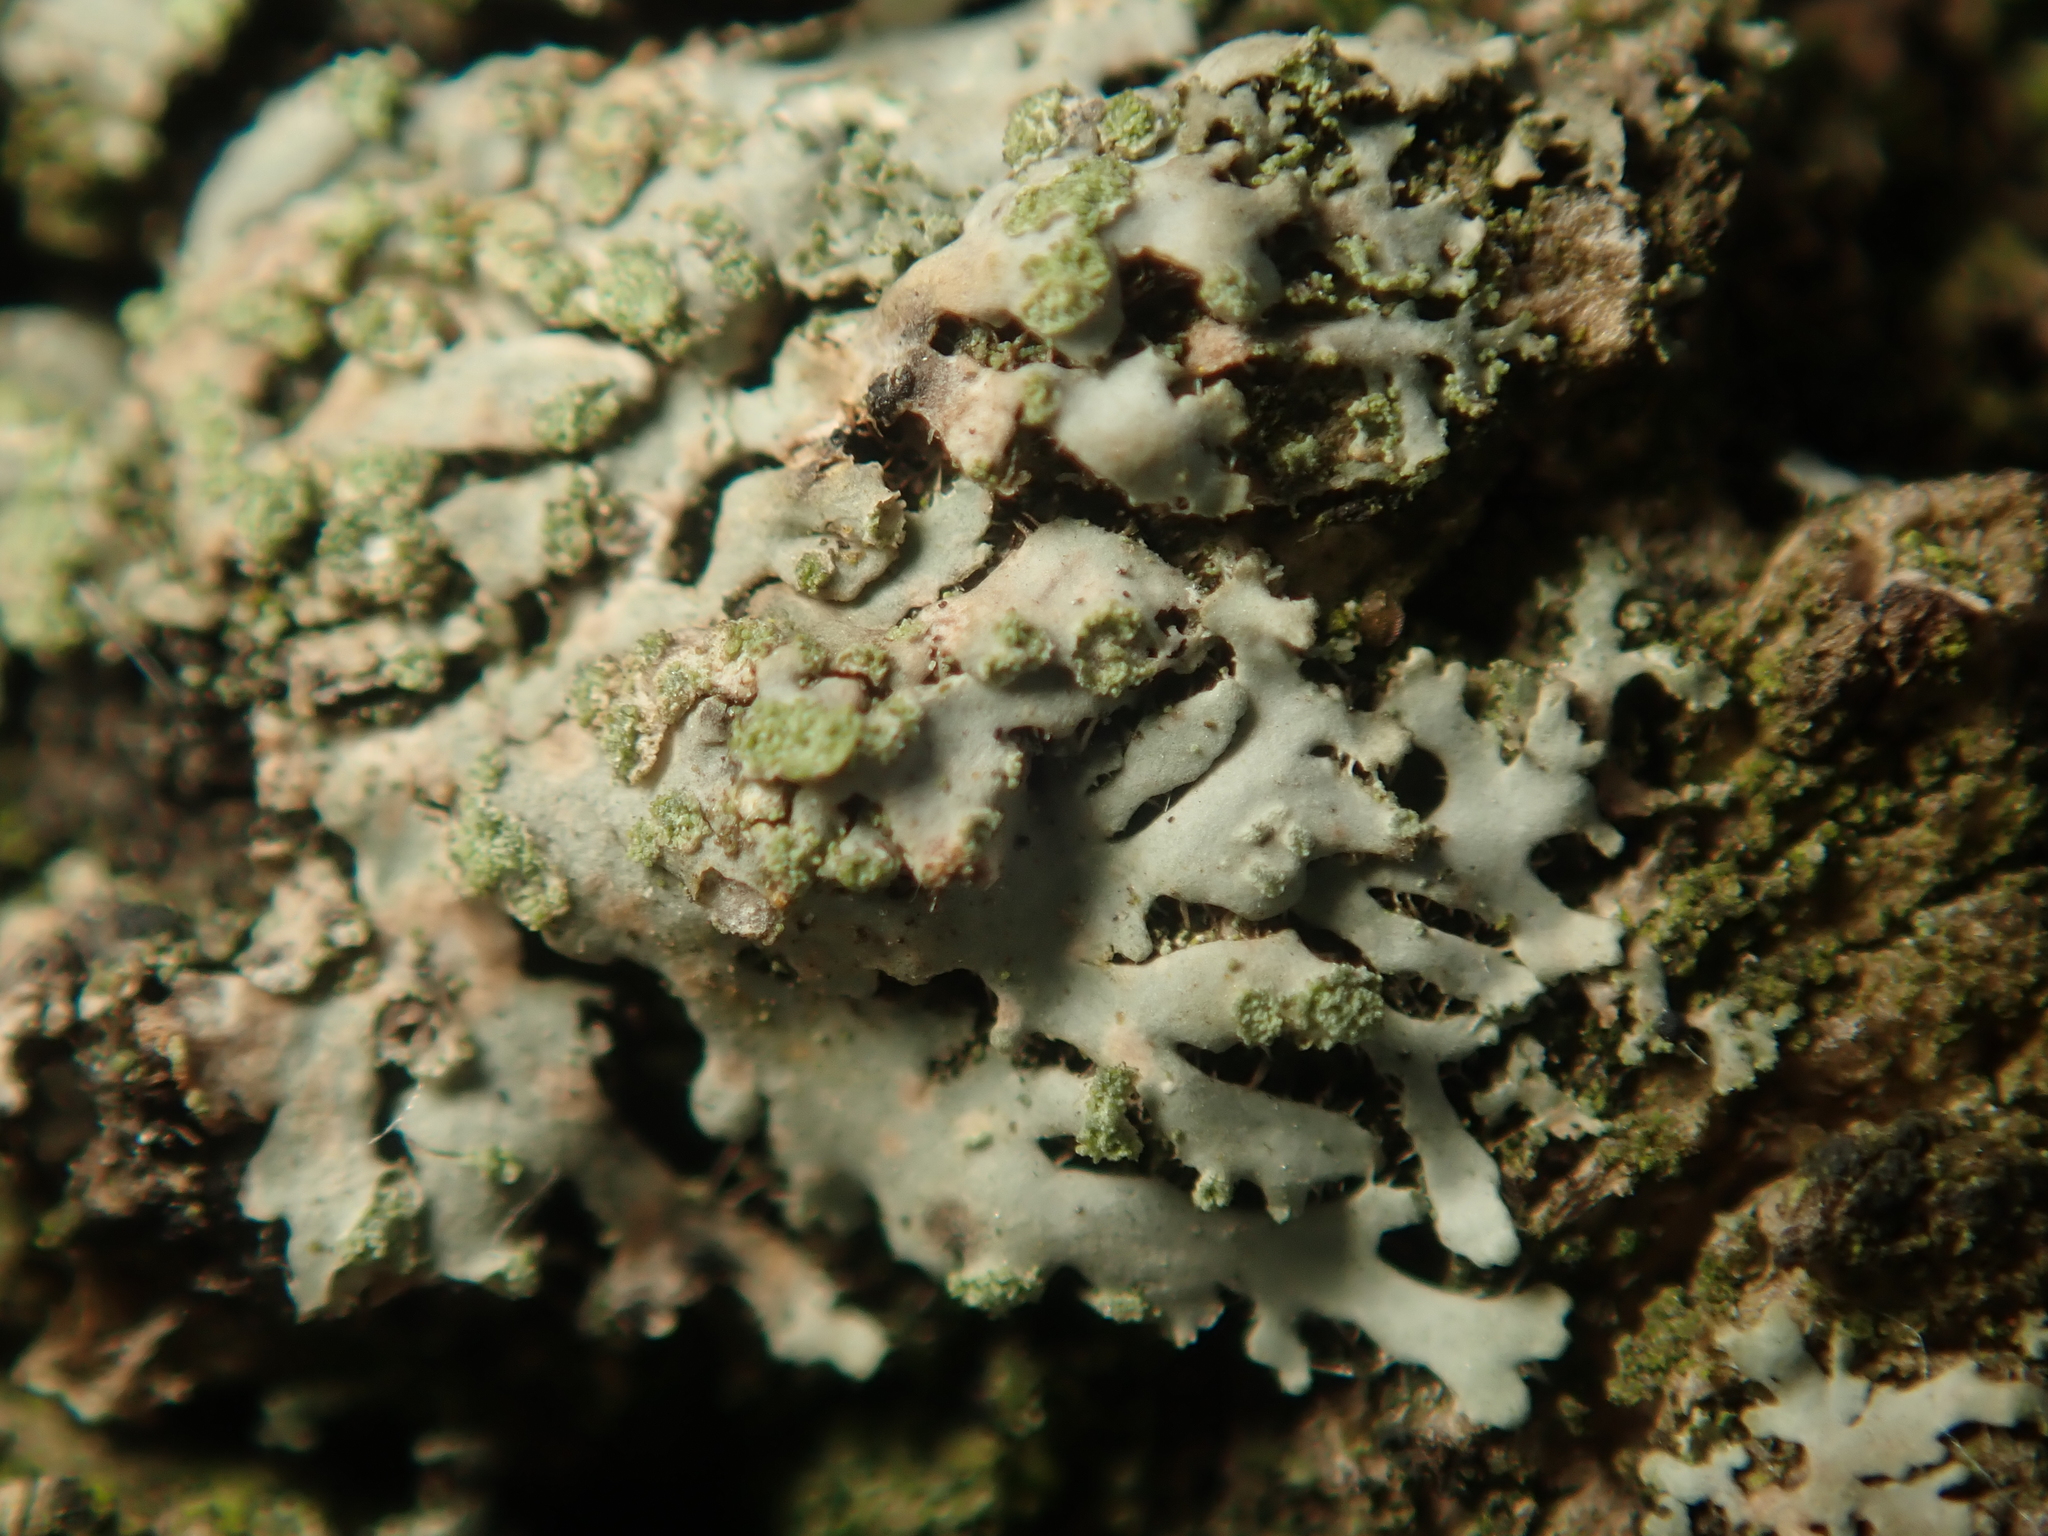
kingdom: Fungi
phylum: Ascomycota
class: Lecanoromycetes
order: Caliciales
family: Physciaceae
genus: Phaeophyscia
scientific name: Phaeophyscia orbicularis
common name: Mealy shadow lichen
